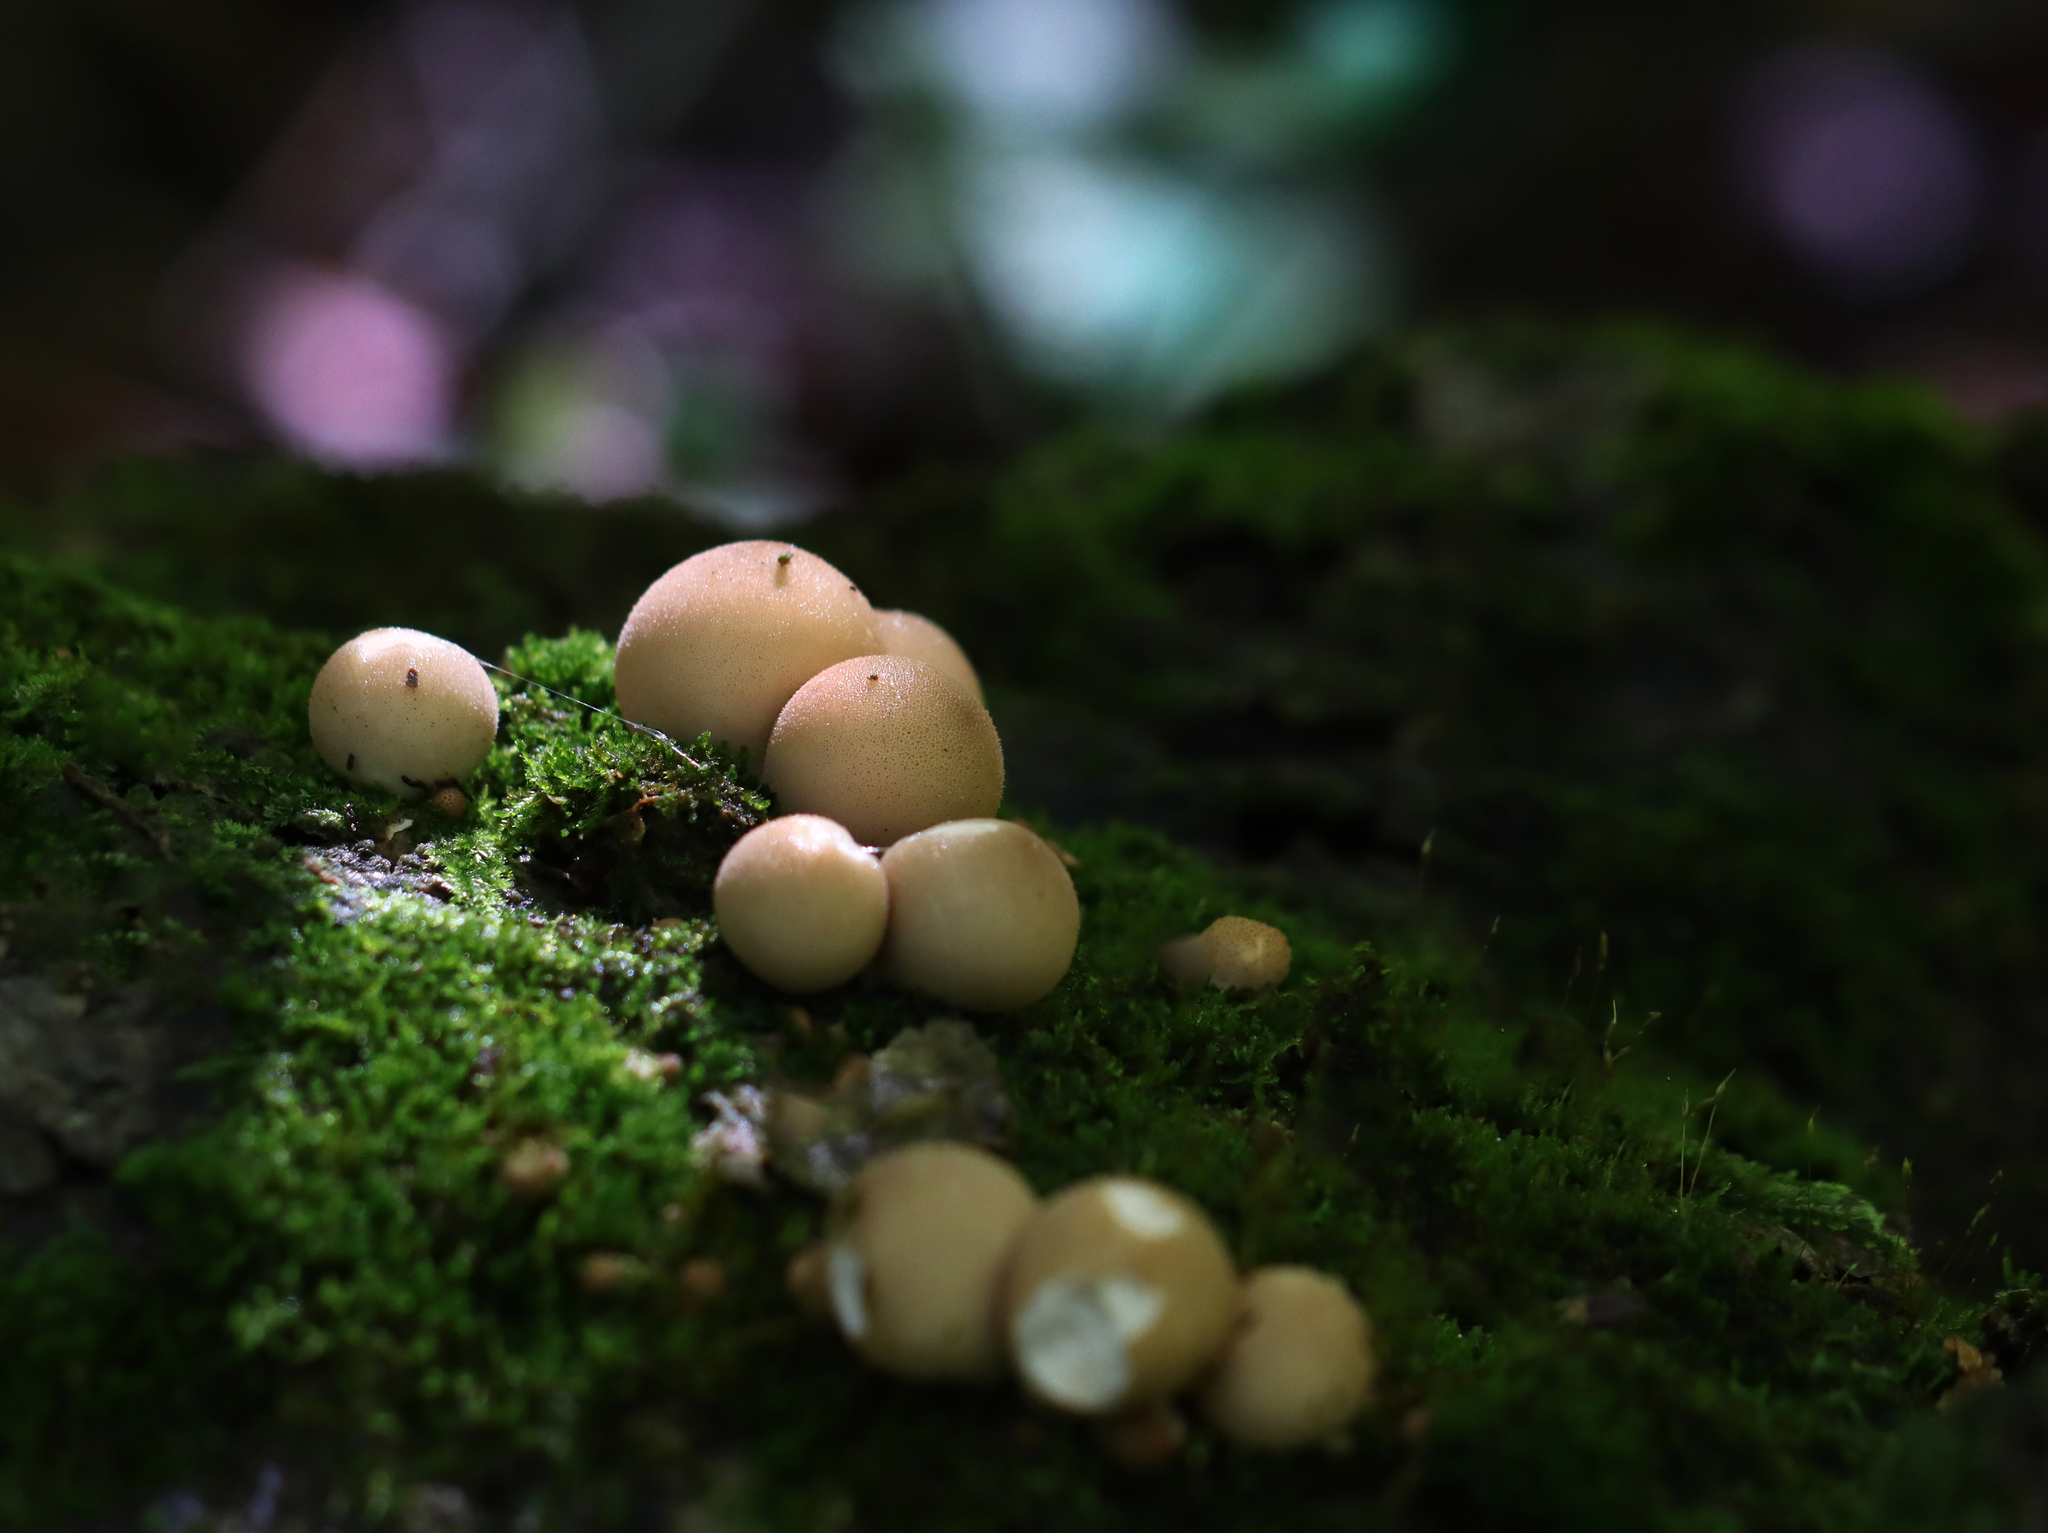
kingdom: Fungi
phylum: Basidiomycota
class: Agaricomycetes
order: Agaricales
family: Lycoperdaceae
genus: Apioperdon
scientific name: Apioperdon pyriforme
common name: Pear-shaped puffball
